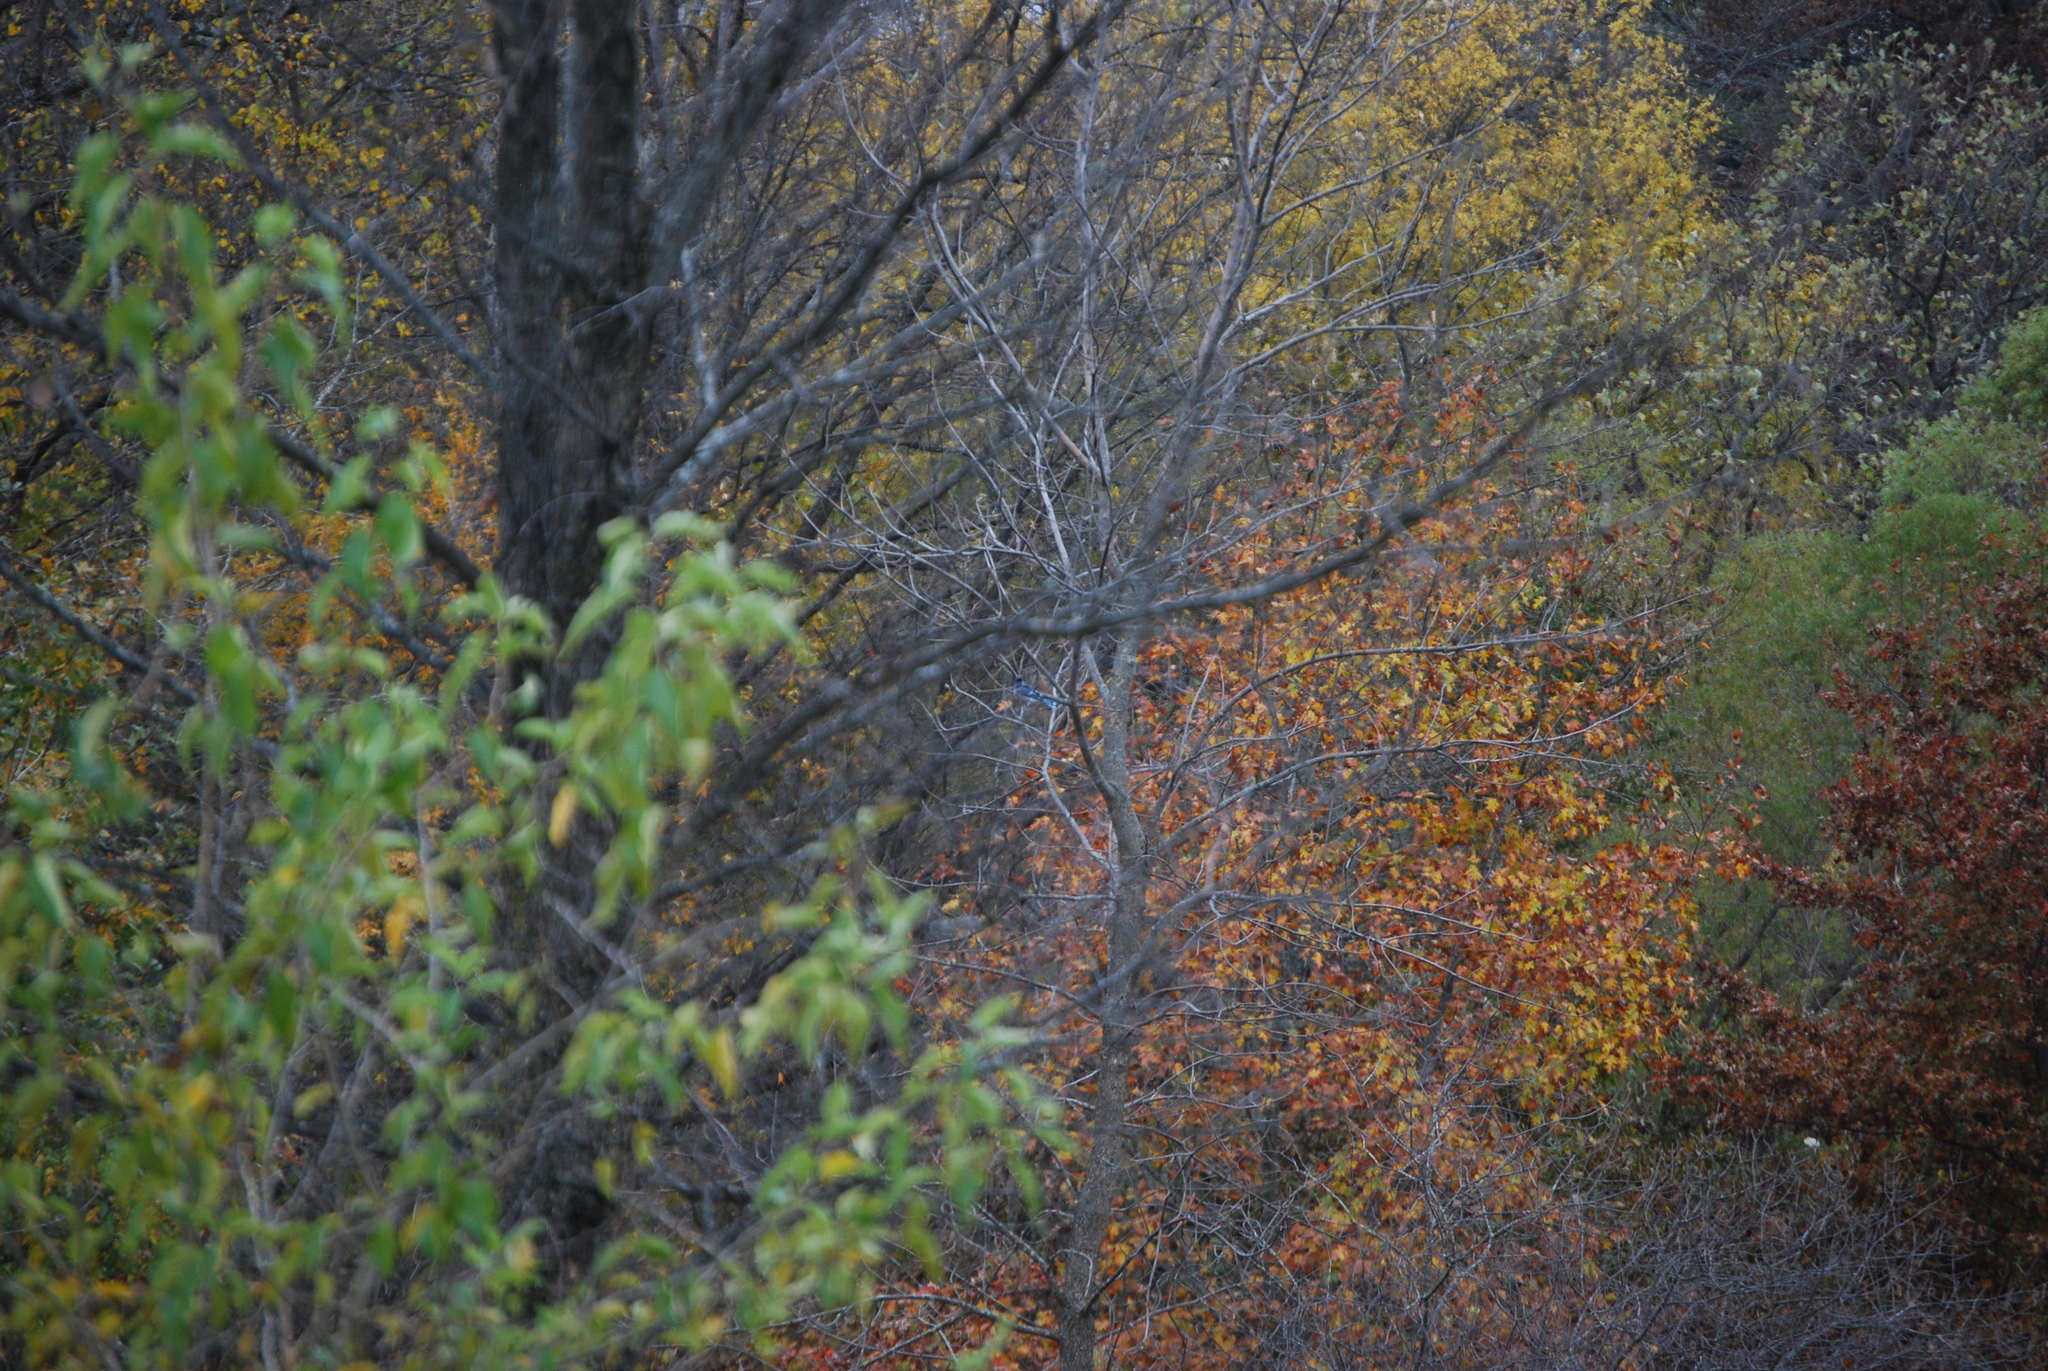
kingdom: Animalia
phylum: Chordata
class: Aves
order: Passeriformes
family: Corvidae
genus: Cyanocitta
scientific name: Cyanocitta cristata
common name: Blue jay
